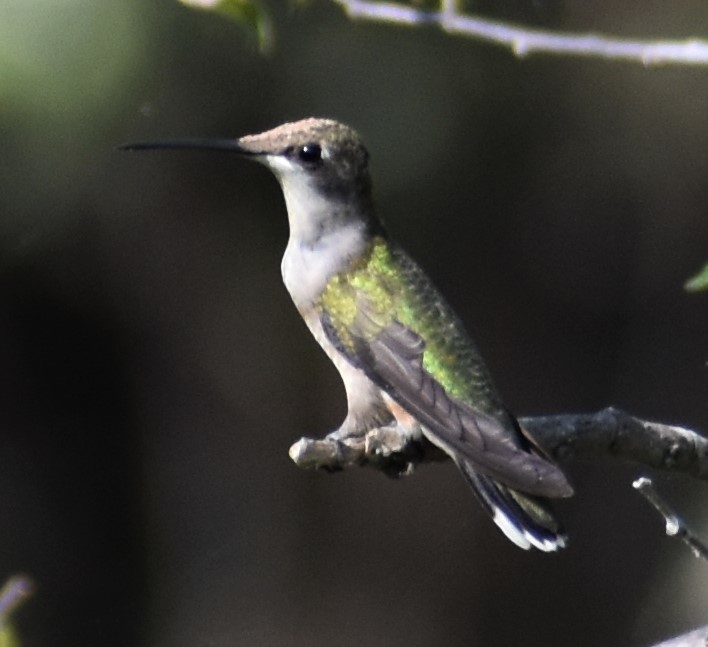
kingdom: Animalia
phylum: Chordata
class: Aves
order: Apodiformes
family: Trochilidae
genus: Archilochus
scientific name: Archilochus colubris
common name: Ruby-throated hummingbird
